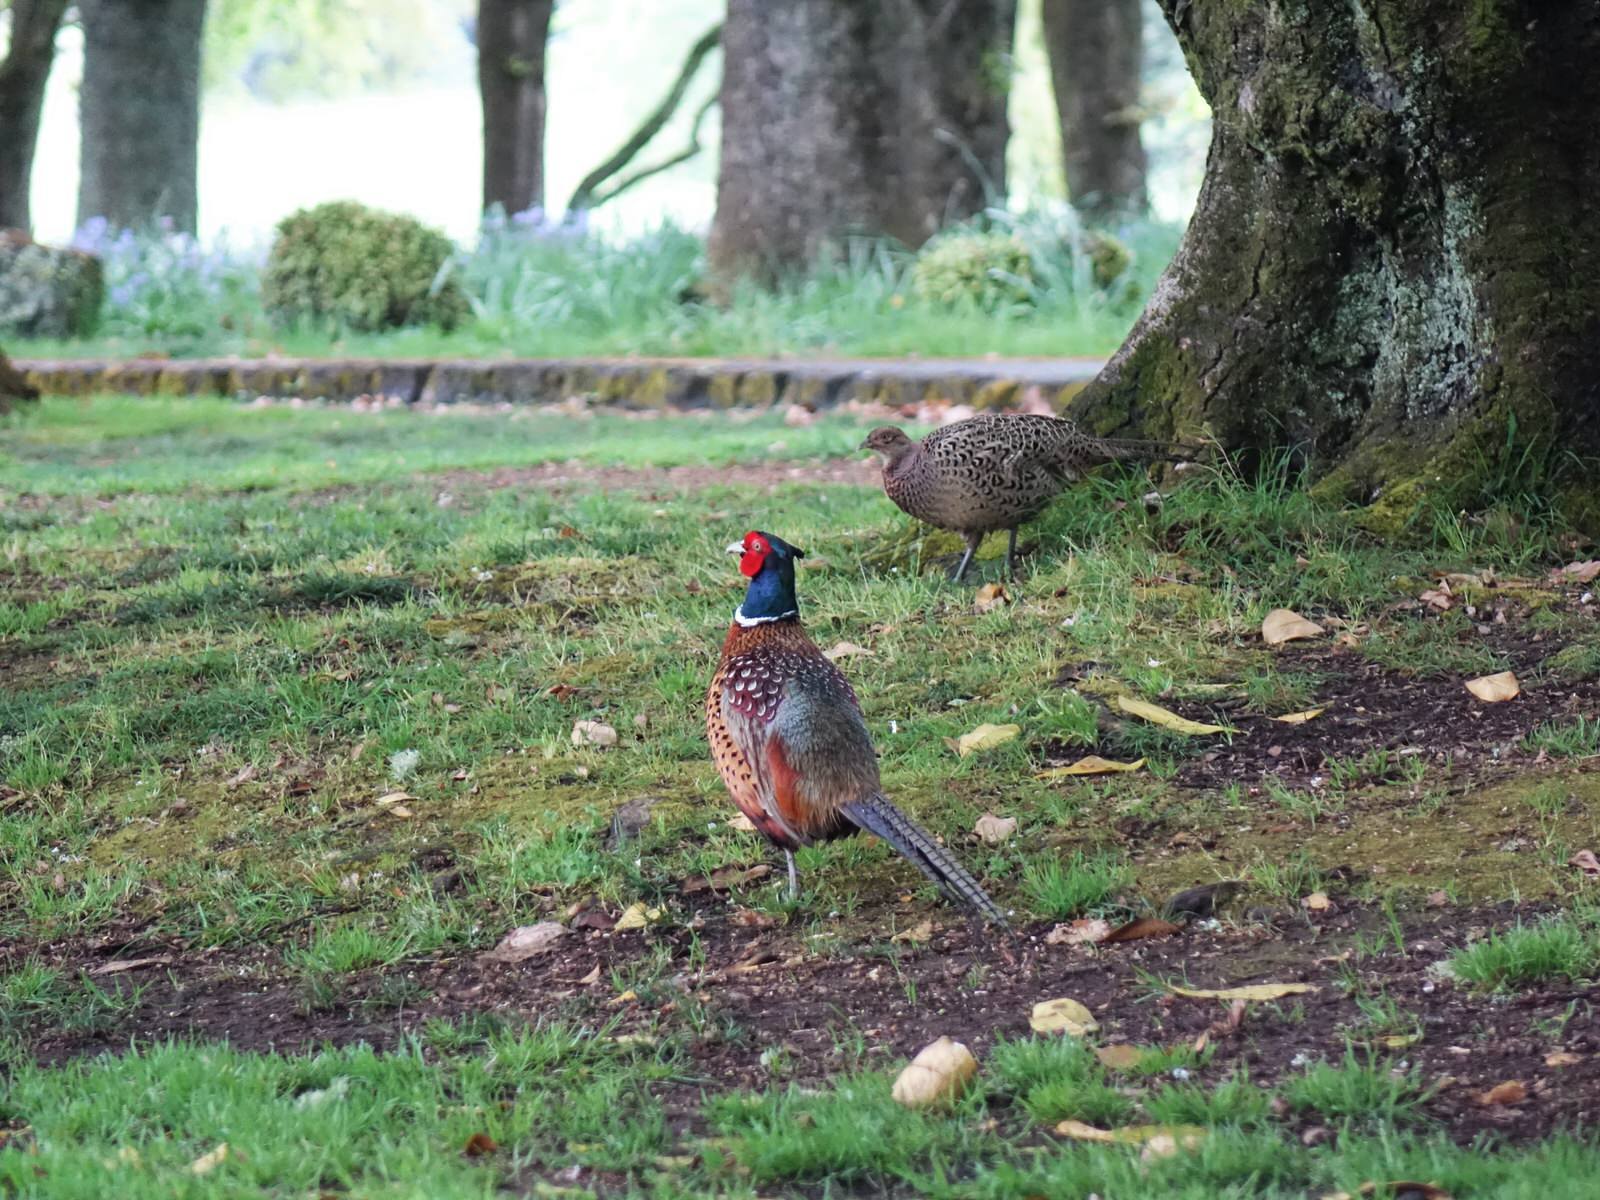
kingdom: Animalia
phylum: Chordata
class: Aves
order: Galliformes
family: Phasianidae
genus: Phasianus
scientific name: Phasianus colchicus
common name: Common pheasant
